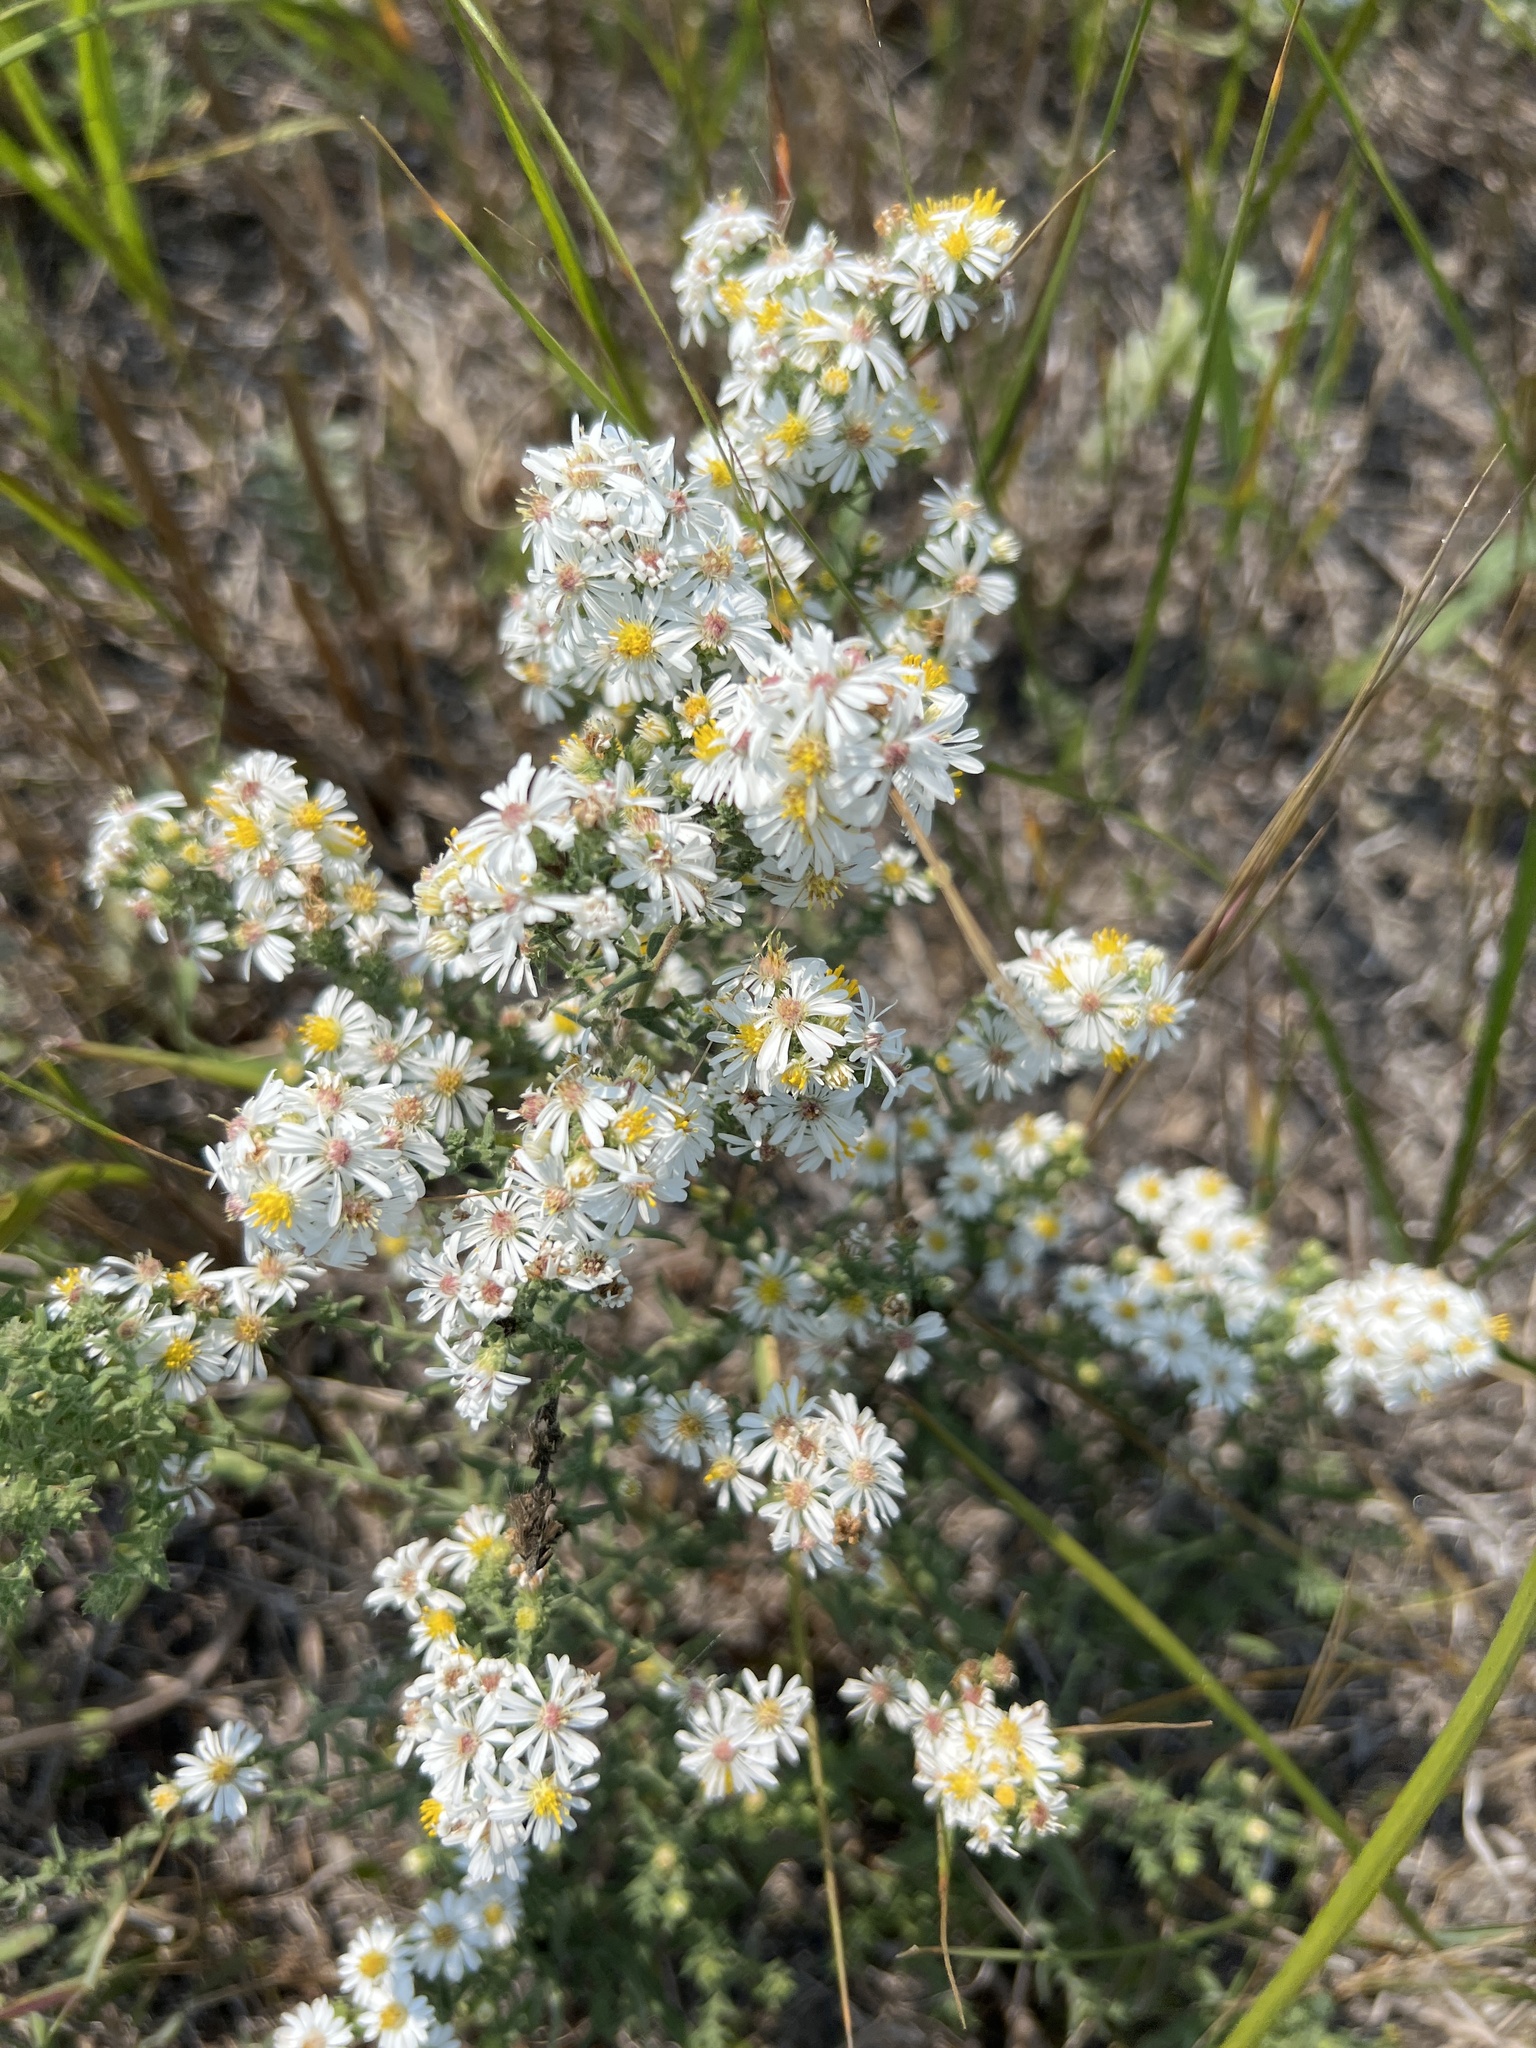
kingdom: Plantae
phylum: Tracheophyta
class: Magnoliopsida
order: Asterales
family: Asteraceae
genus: Symphyotrichum
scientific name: Symphyotrichum ericoides
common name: Heath aster
